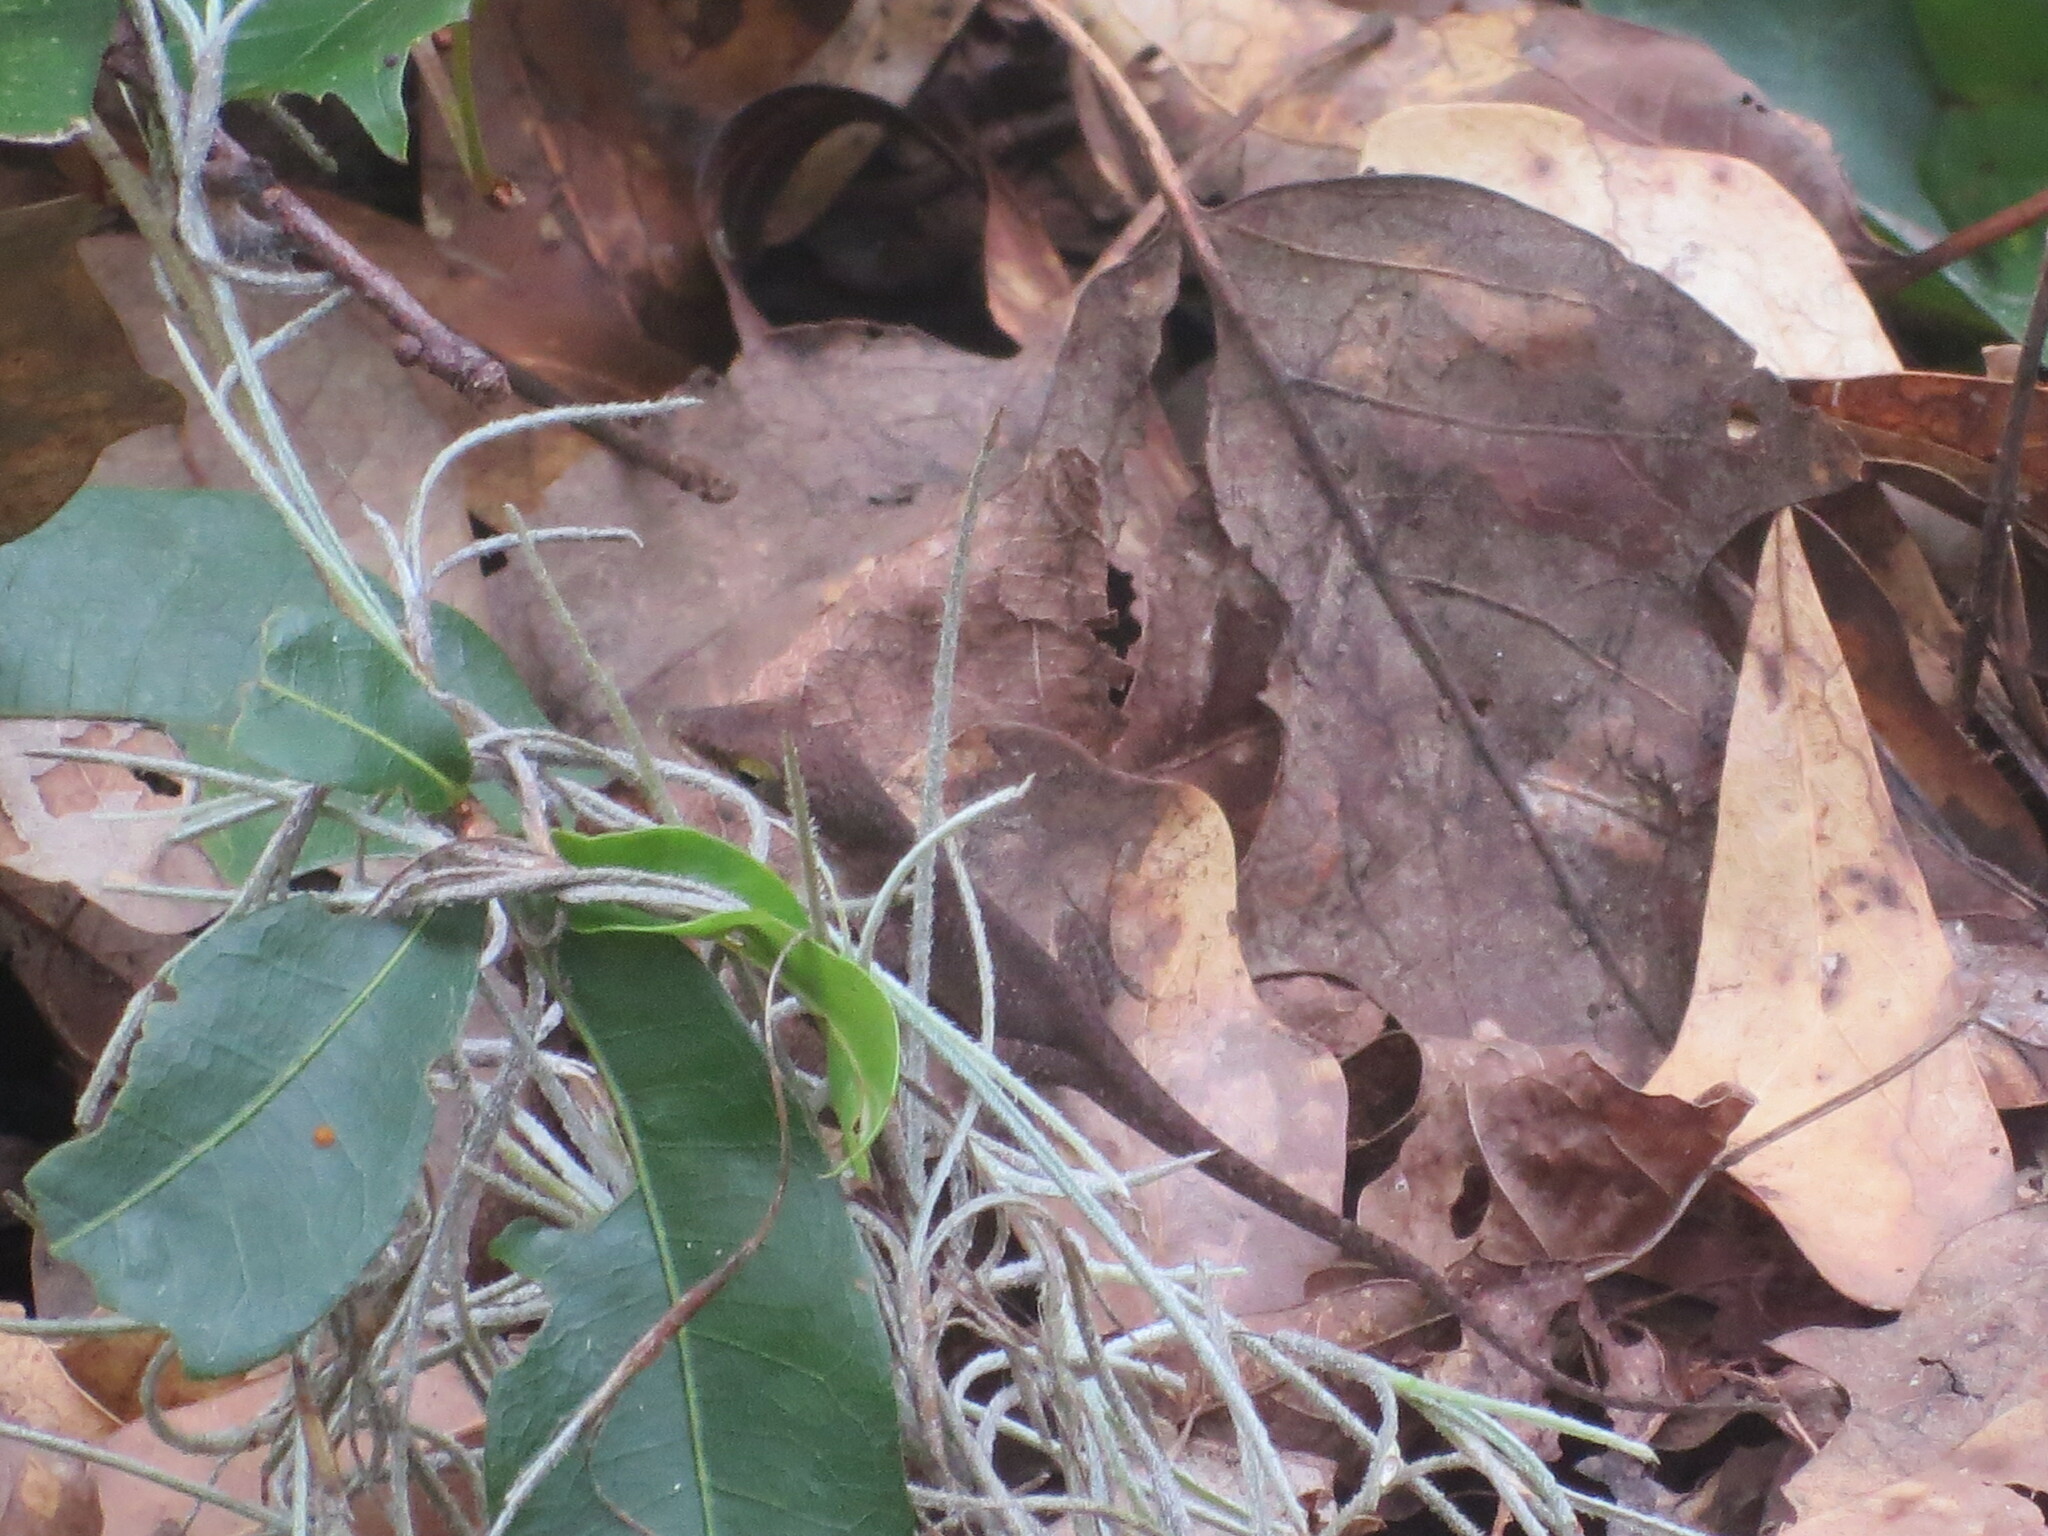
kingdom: Animalia
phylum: Chordata
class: Squamata
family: Dactyloidae
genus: Anolis
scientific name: Anolis carolinensis
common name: Green anole
